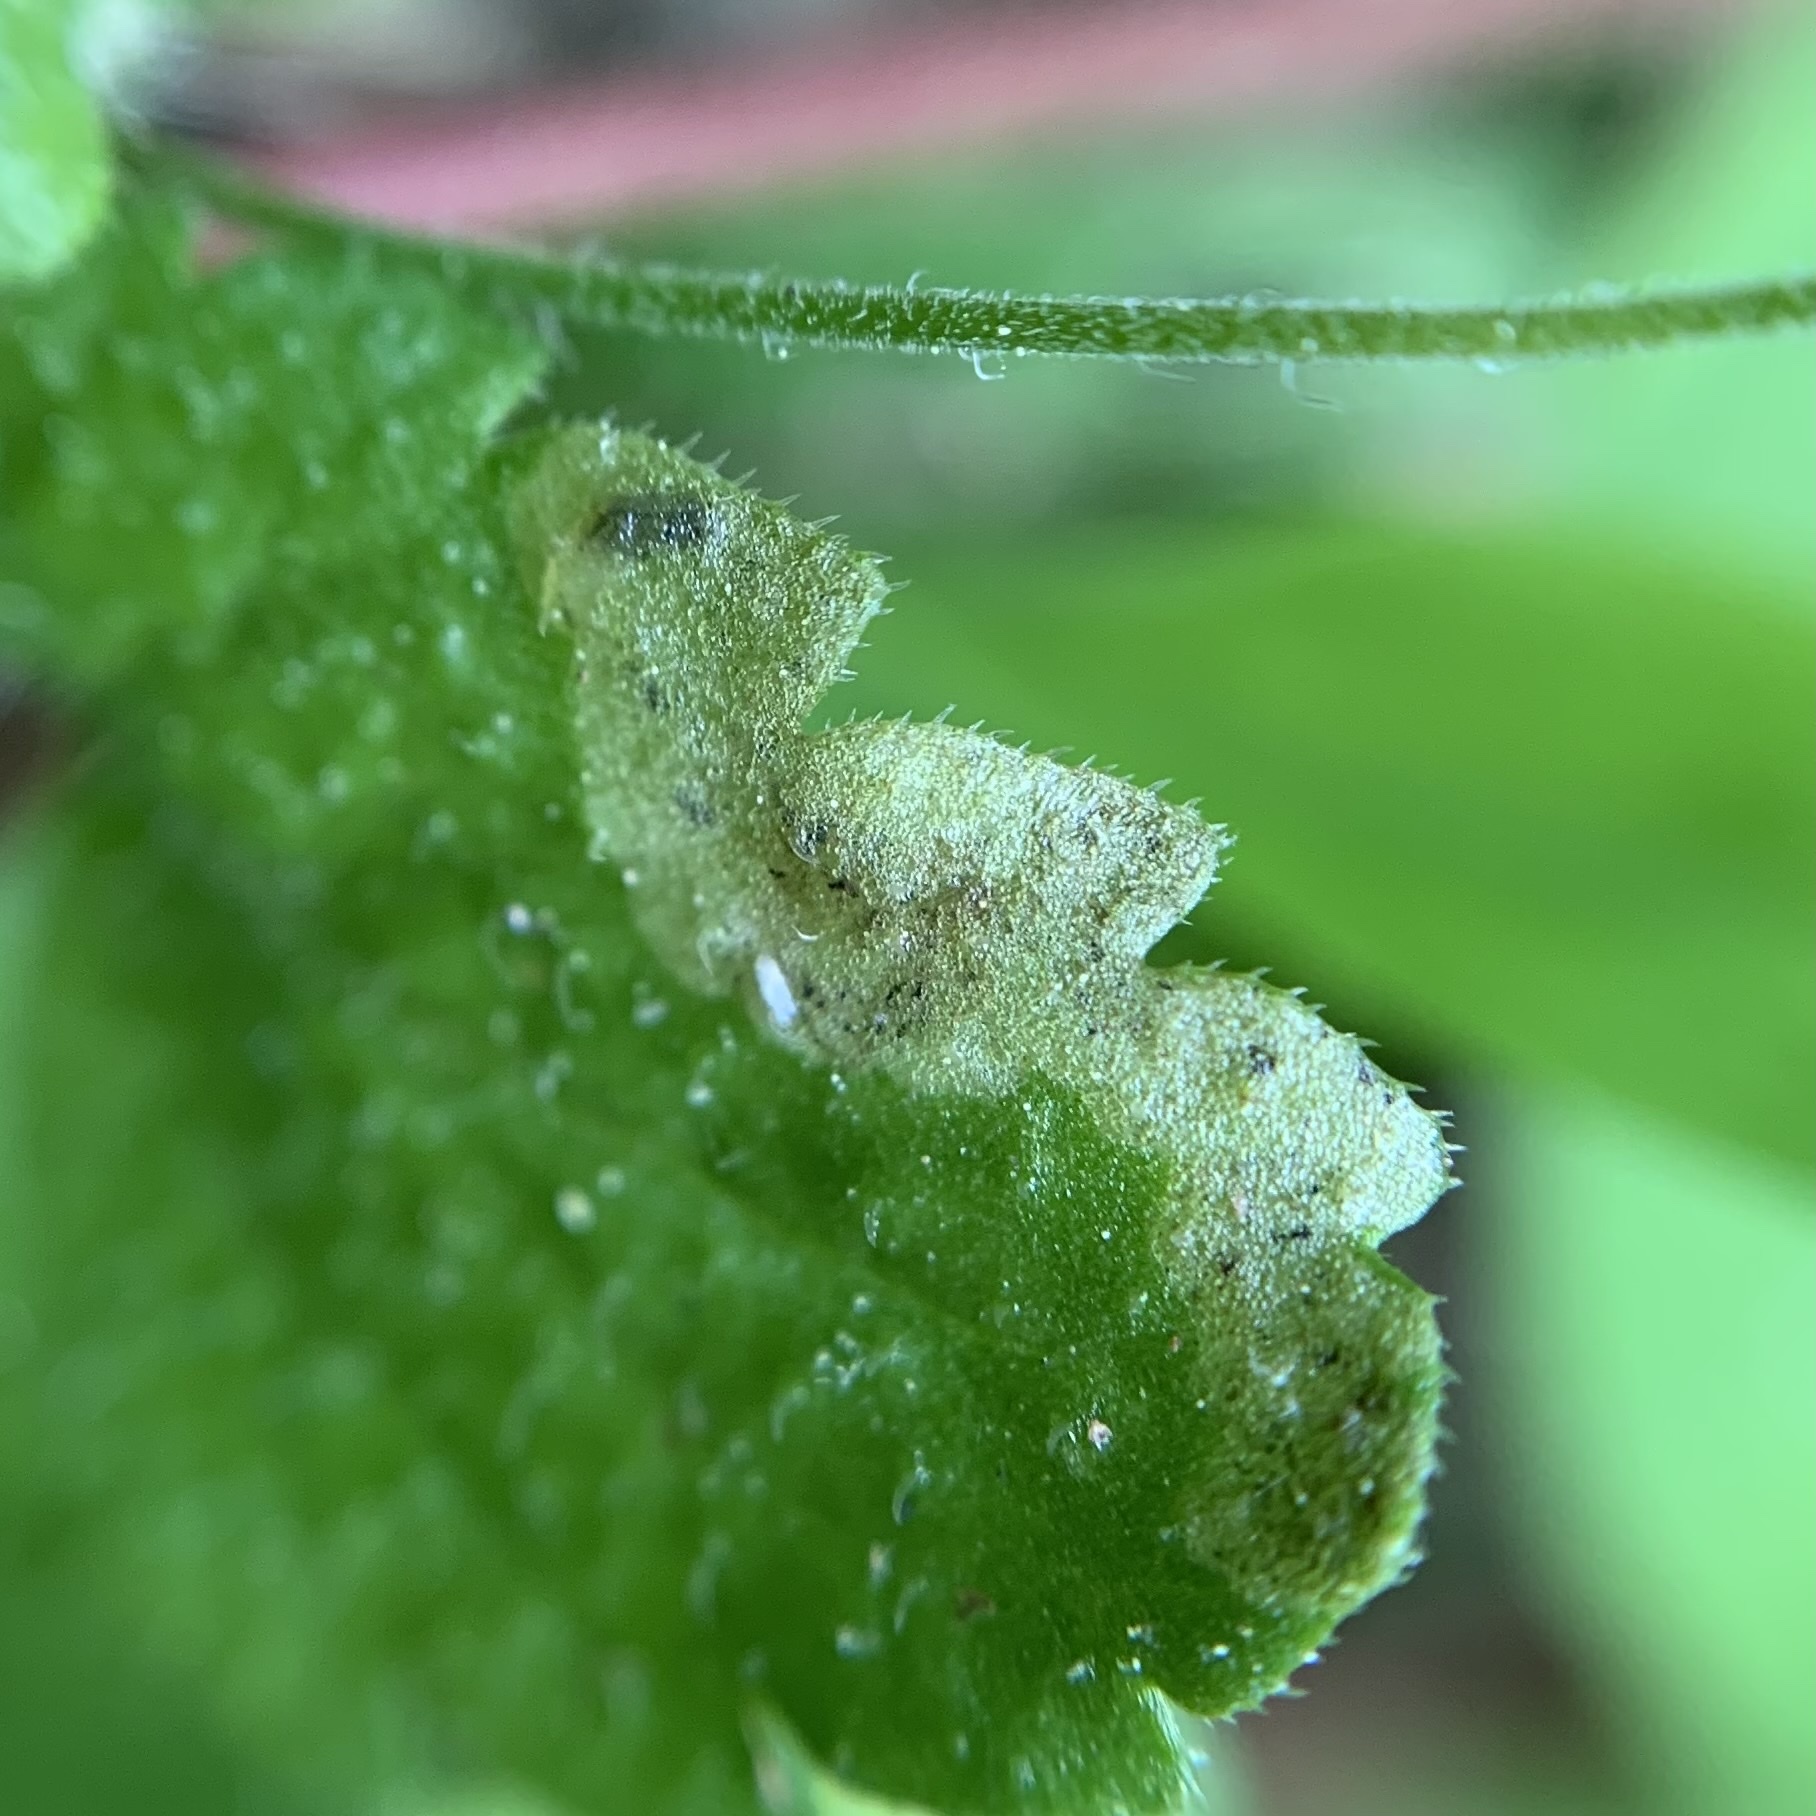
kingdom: Animalia
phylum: Arthropoda
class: Insecta
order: Diptera
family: Agromyzidae
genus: Phytomyza
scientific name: Phytomyza crassiseta
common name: Leaf-miner fly
